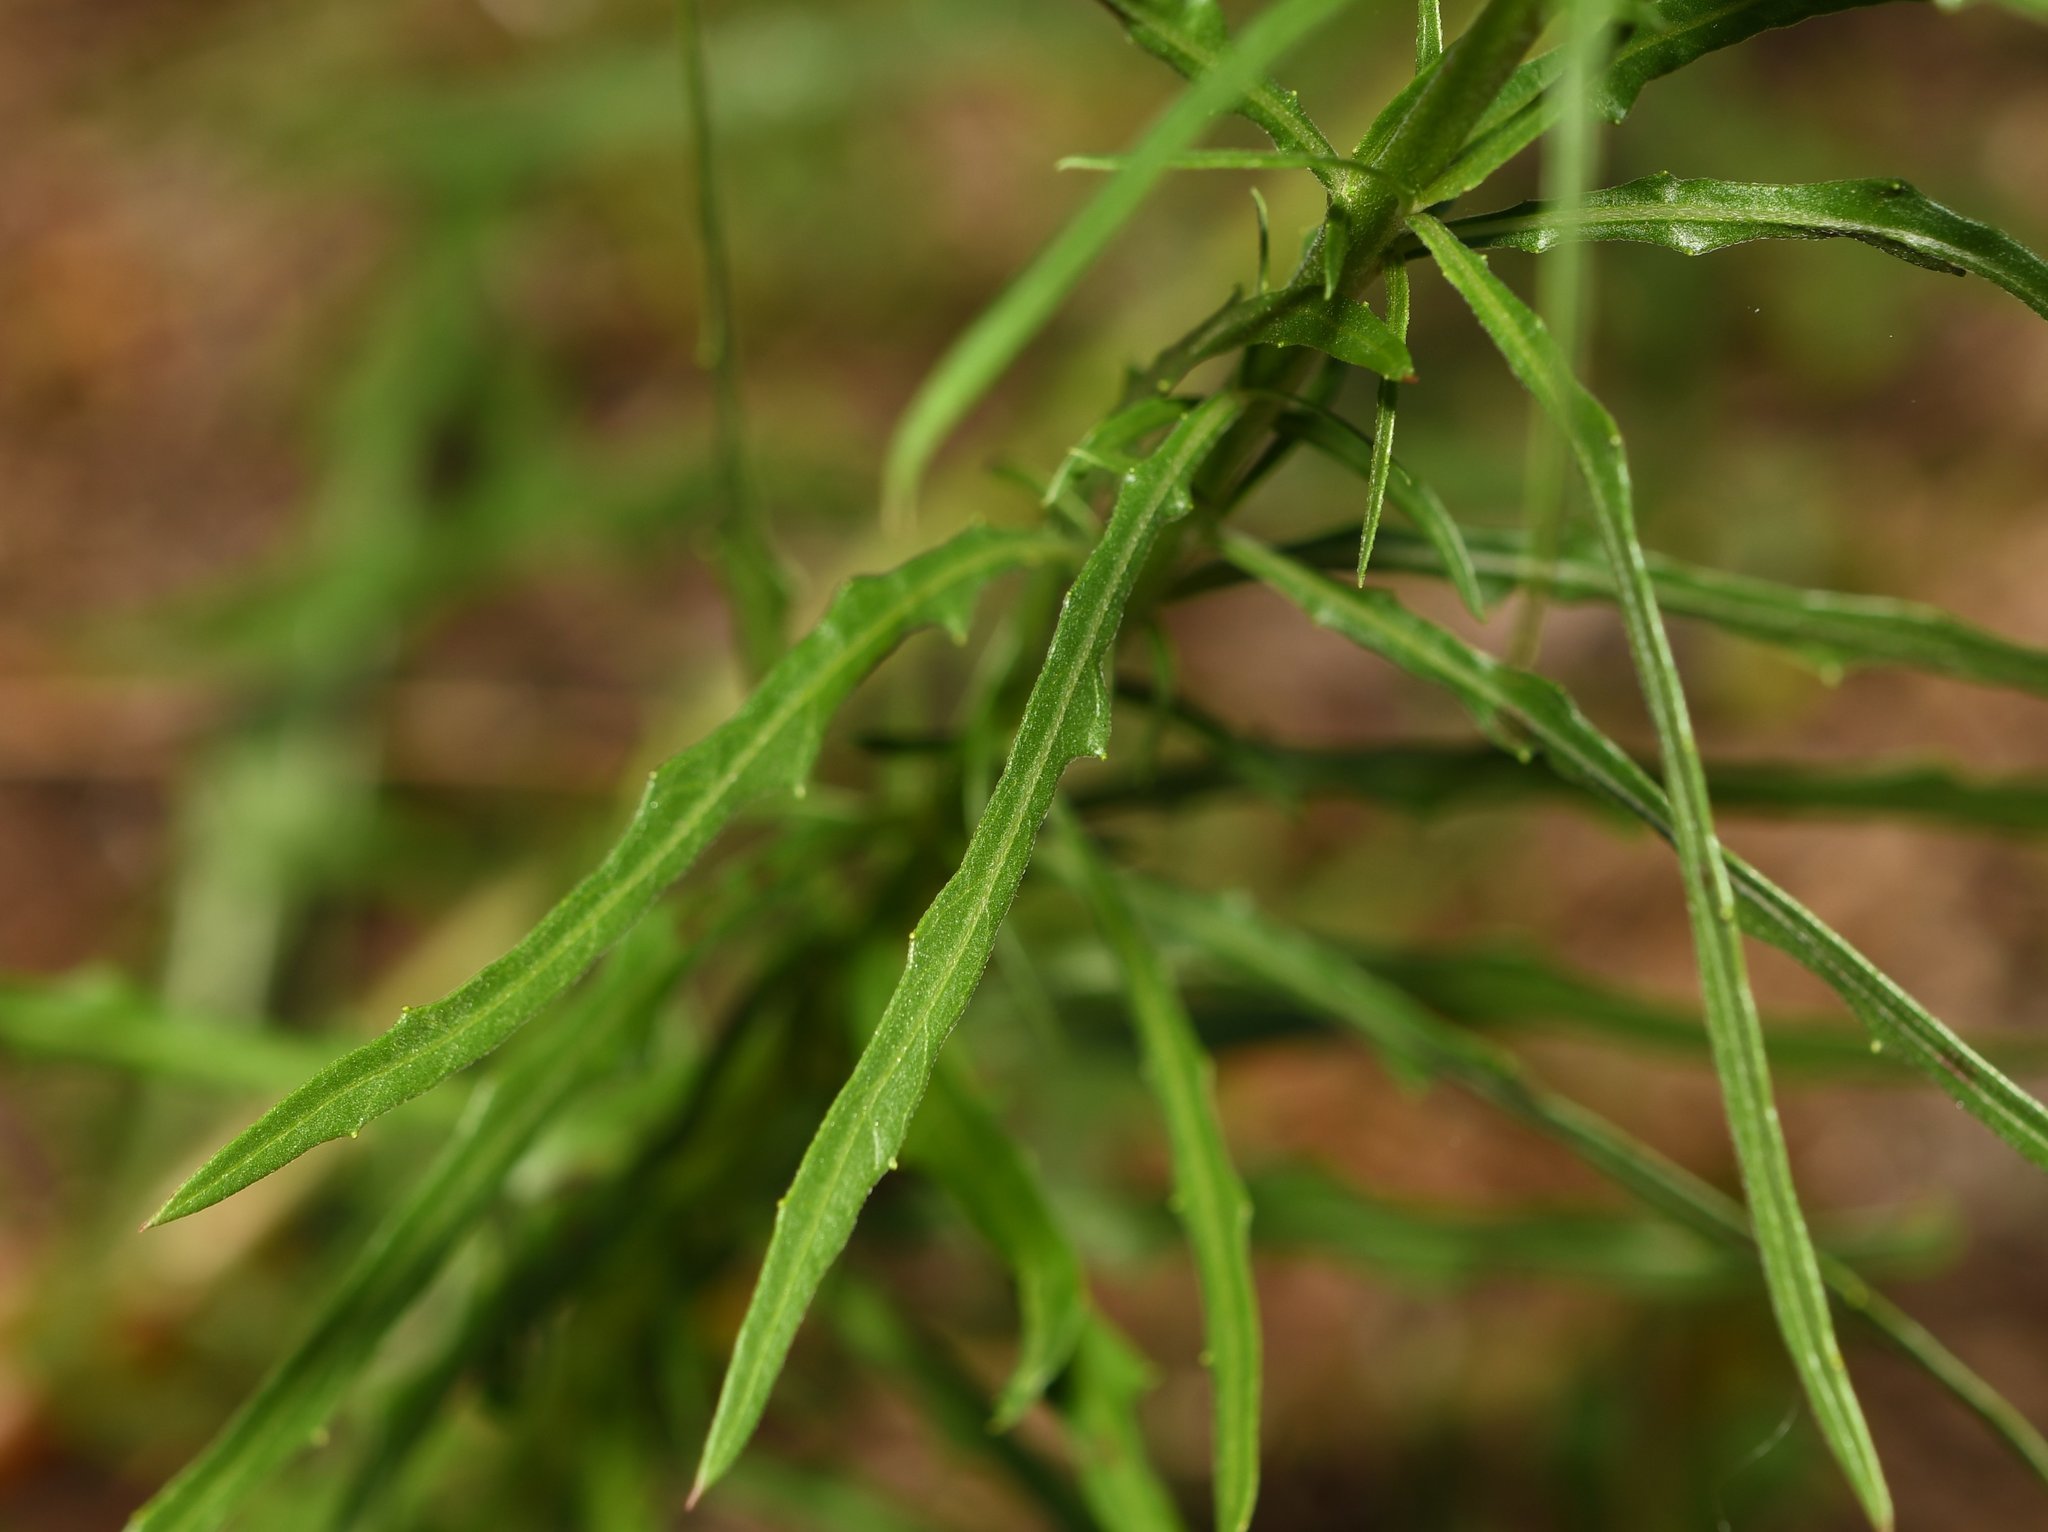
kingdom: Plantae
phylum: Tracheophyta
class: Magnoliopsida
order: Myrtales
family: Onagraceae
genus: Oenothera
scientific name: Oenothera simulans
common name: Southern beeblossom
